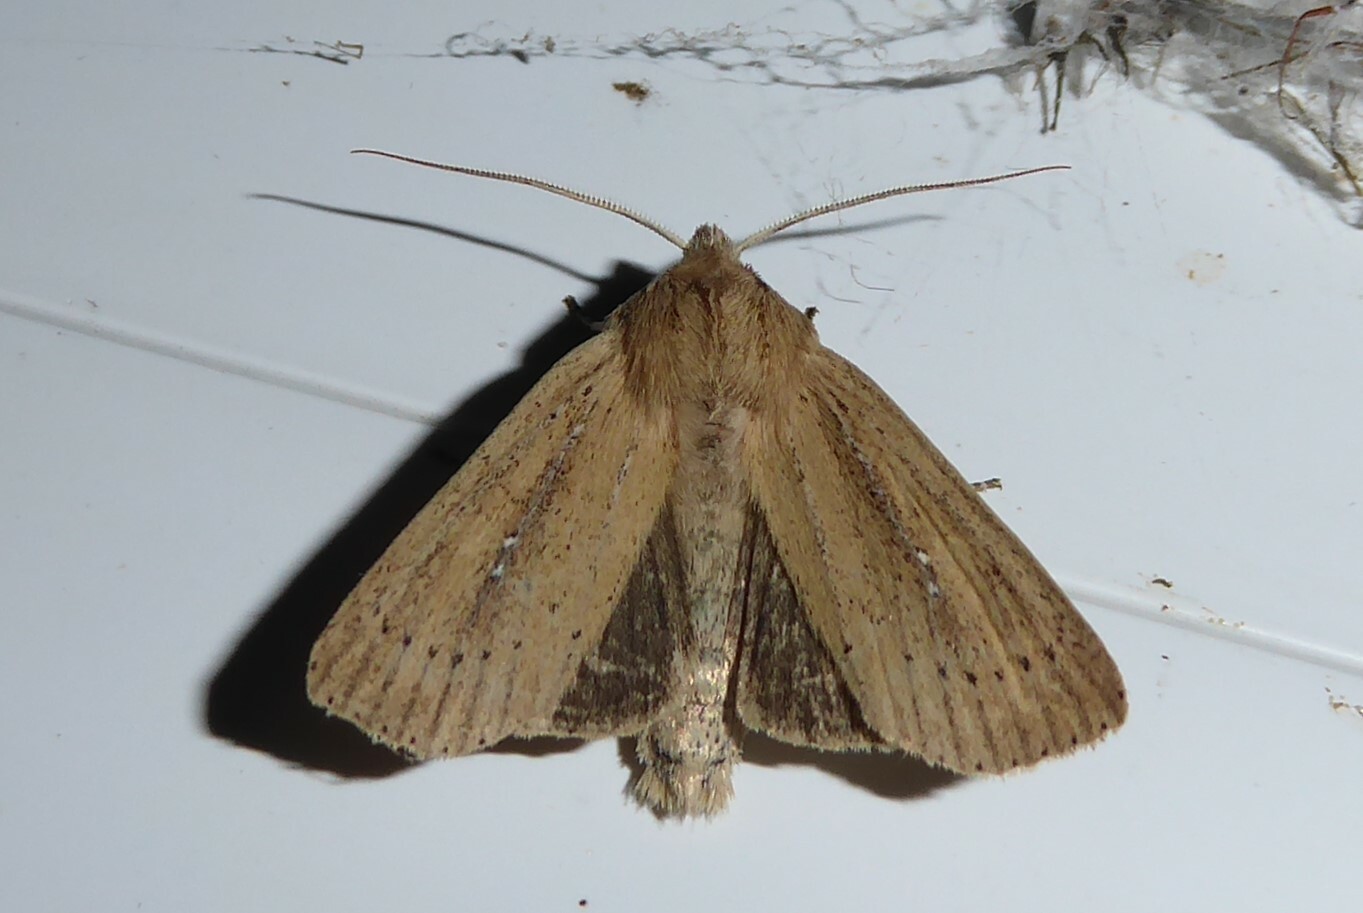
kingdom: Animalia
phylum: Arthropoda
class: Insecta
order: Lepidoptera
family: Noctuidae
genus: Ichneutica
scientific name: Ichneutica
